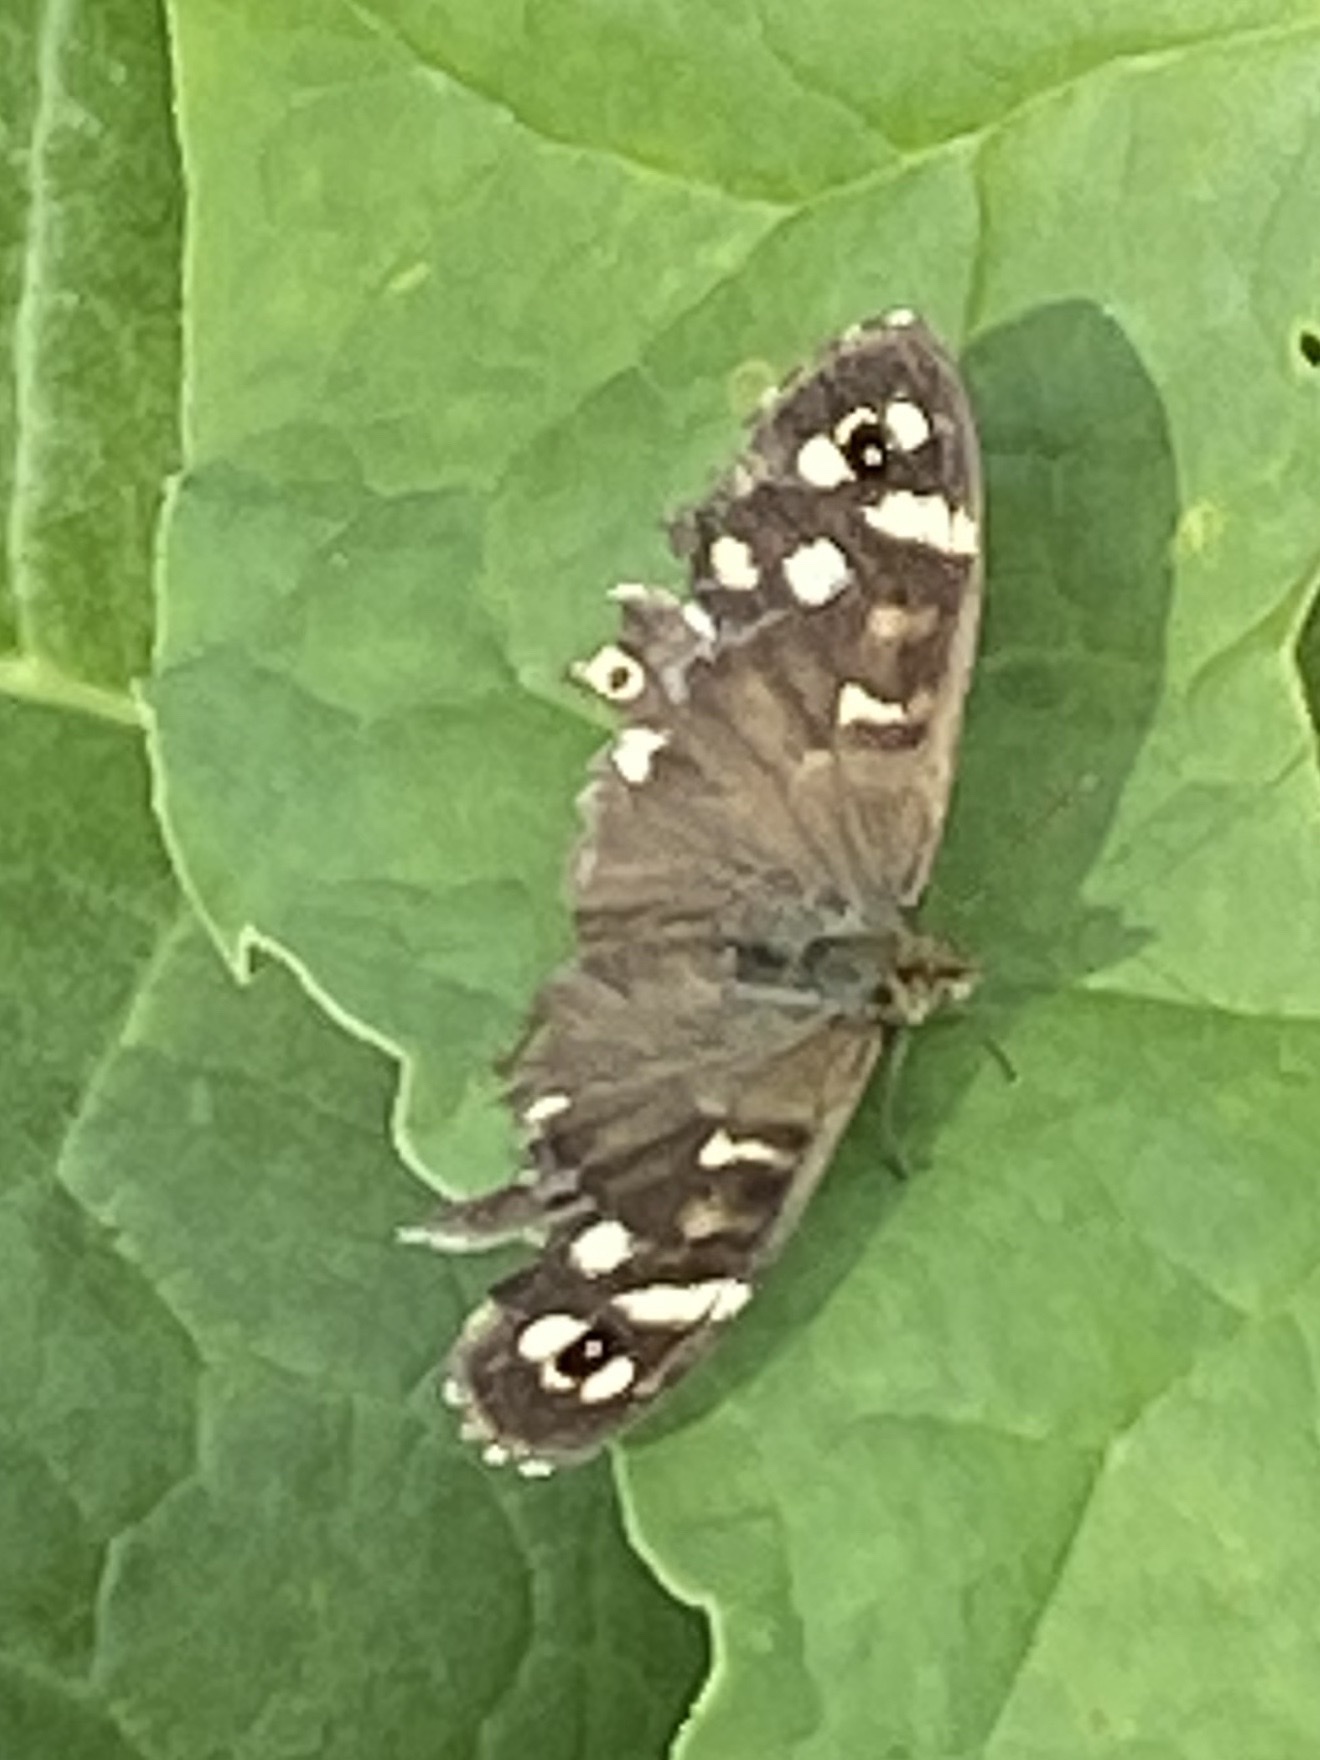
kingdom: Animalia
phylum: Arthropoda
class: Insecta
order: Lepidoptera
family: Nymphalidae
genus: Pararge
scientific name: Pararge aegeria
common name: Speckled wood
